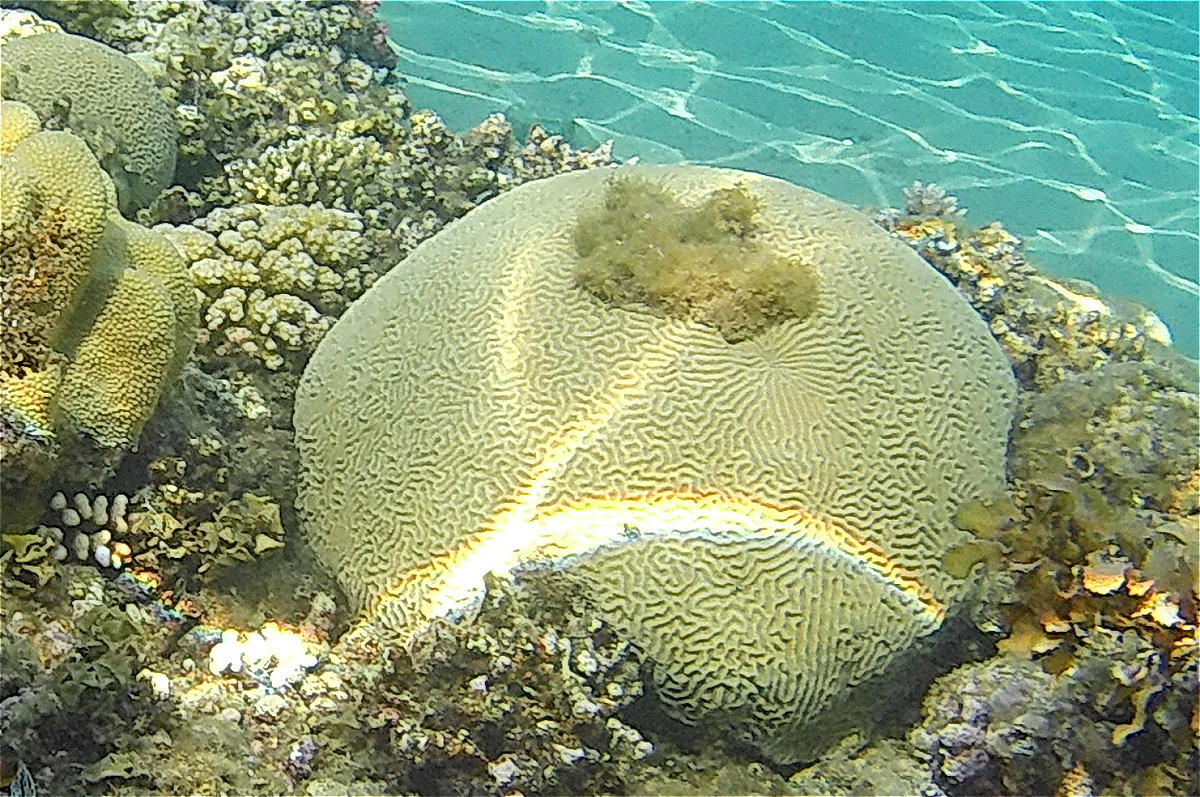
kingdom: Animalia
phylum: Cnidaria
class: Anthozoa
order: Scleractinia
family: Merulinidae
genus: Platygyra
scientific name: Platygyra daedalea
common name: Lesser valley coral
